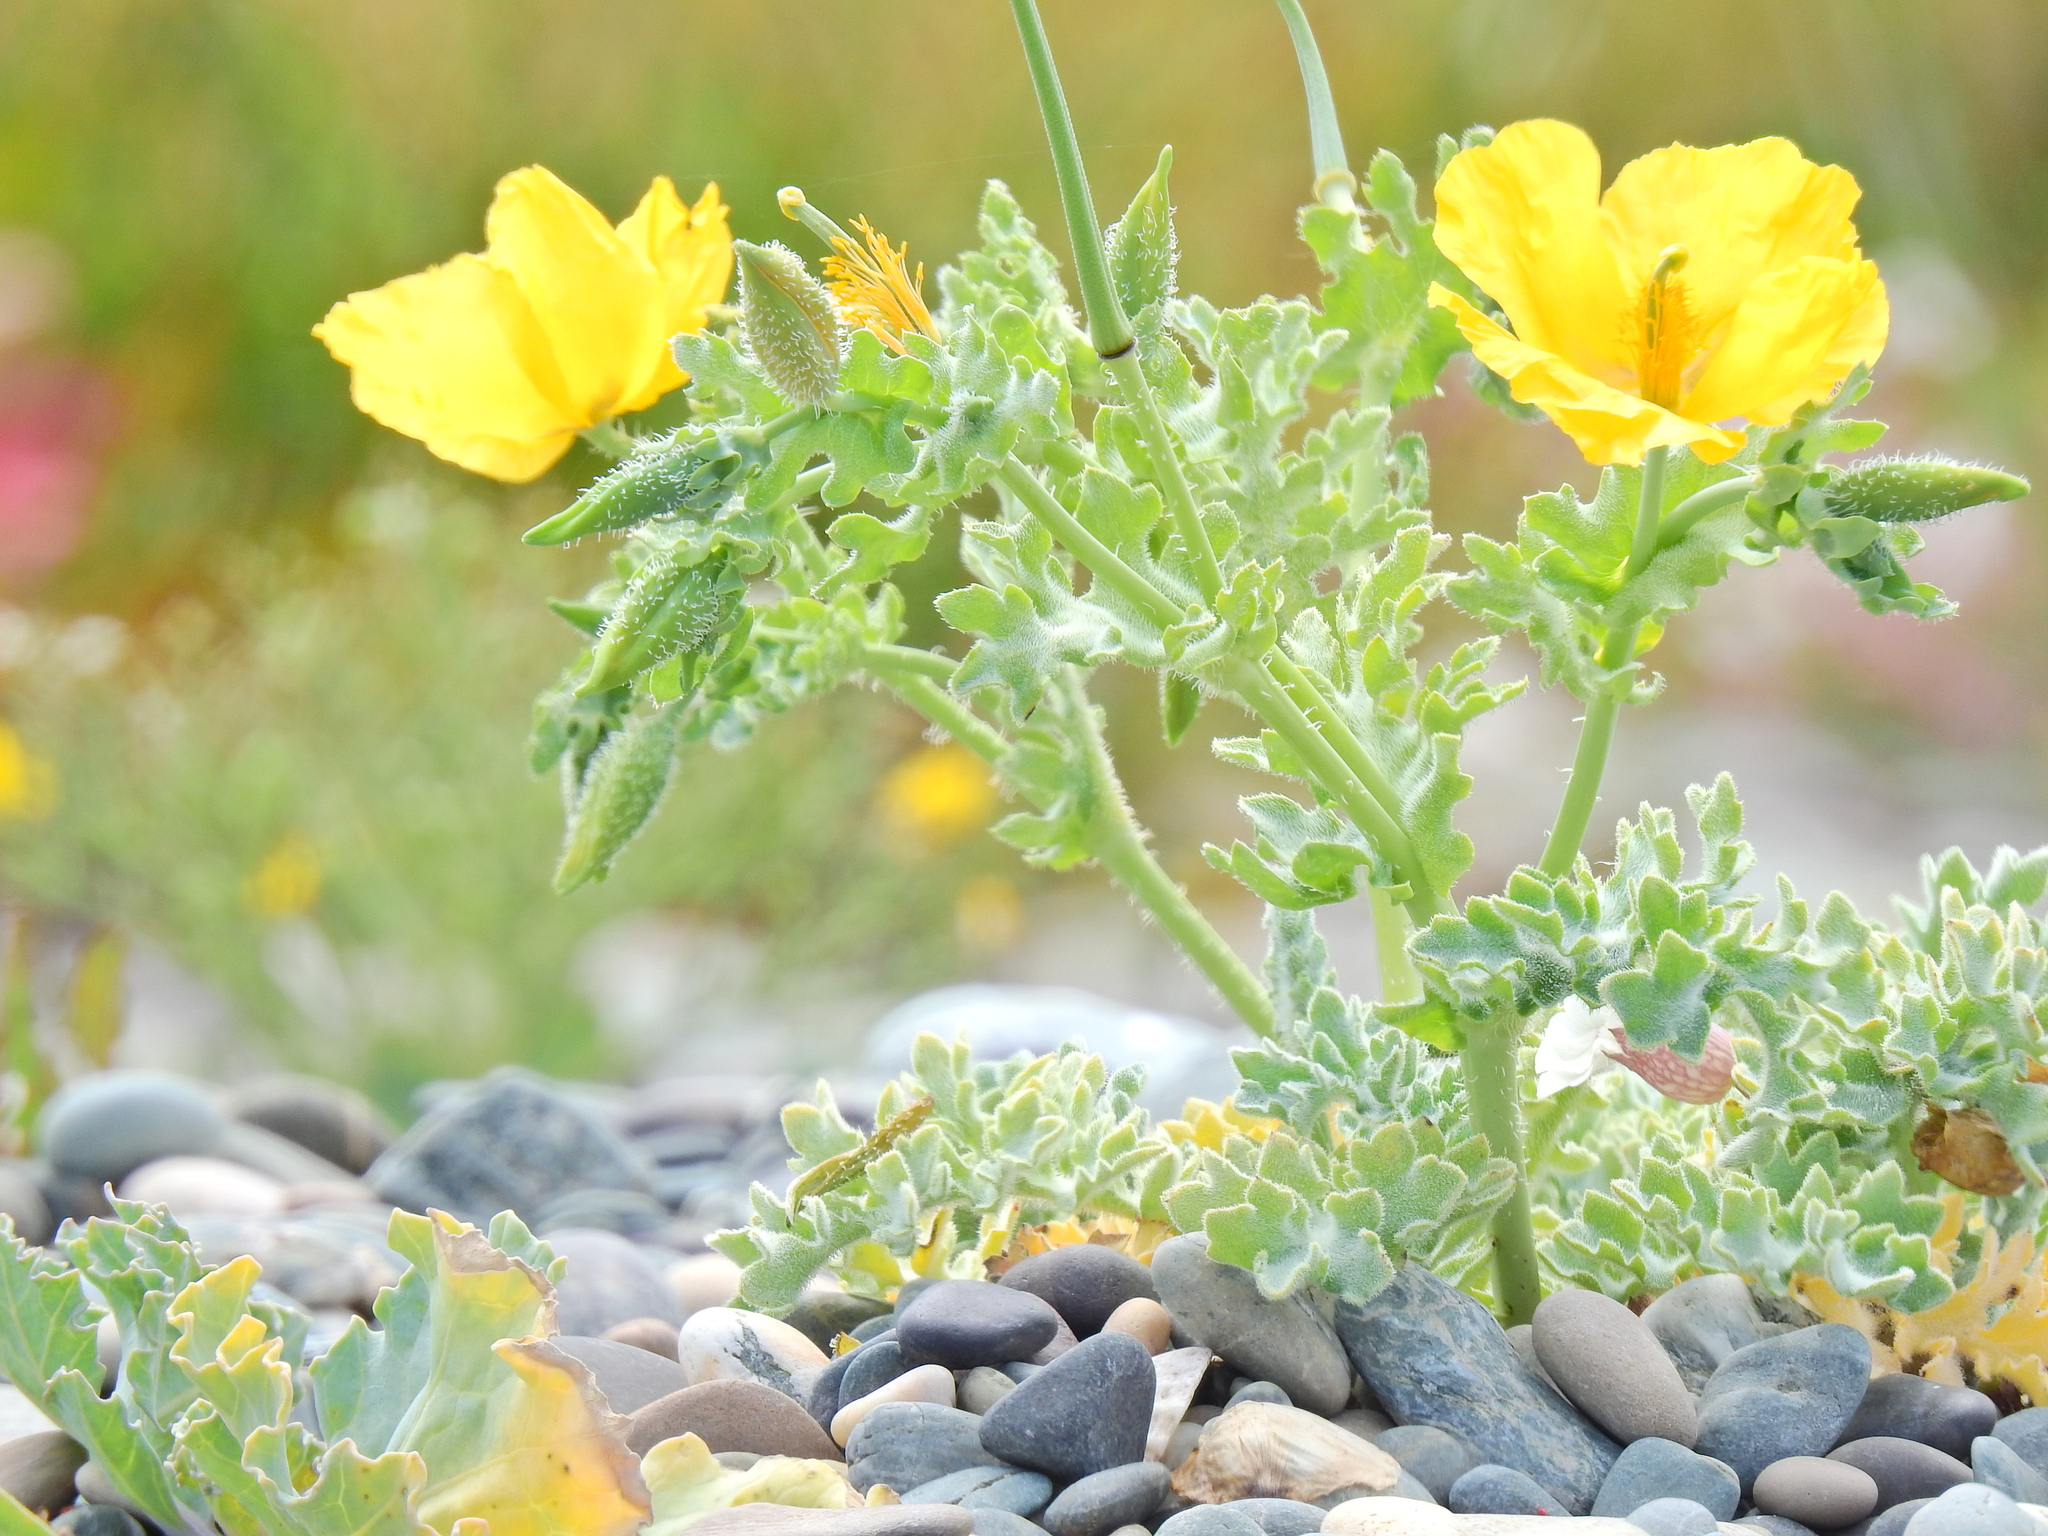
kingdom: Plantae
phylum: Tracheophyta
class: Magnoliopsida
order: Ranunculales
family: Papaveraceae
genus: Glaucium
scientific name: Glaucium flavum
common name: Yellow horned-poppy
